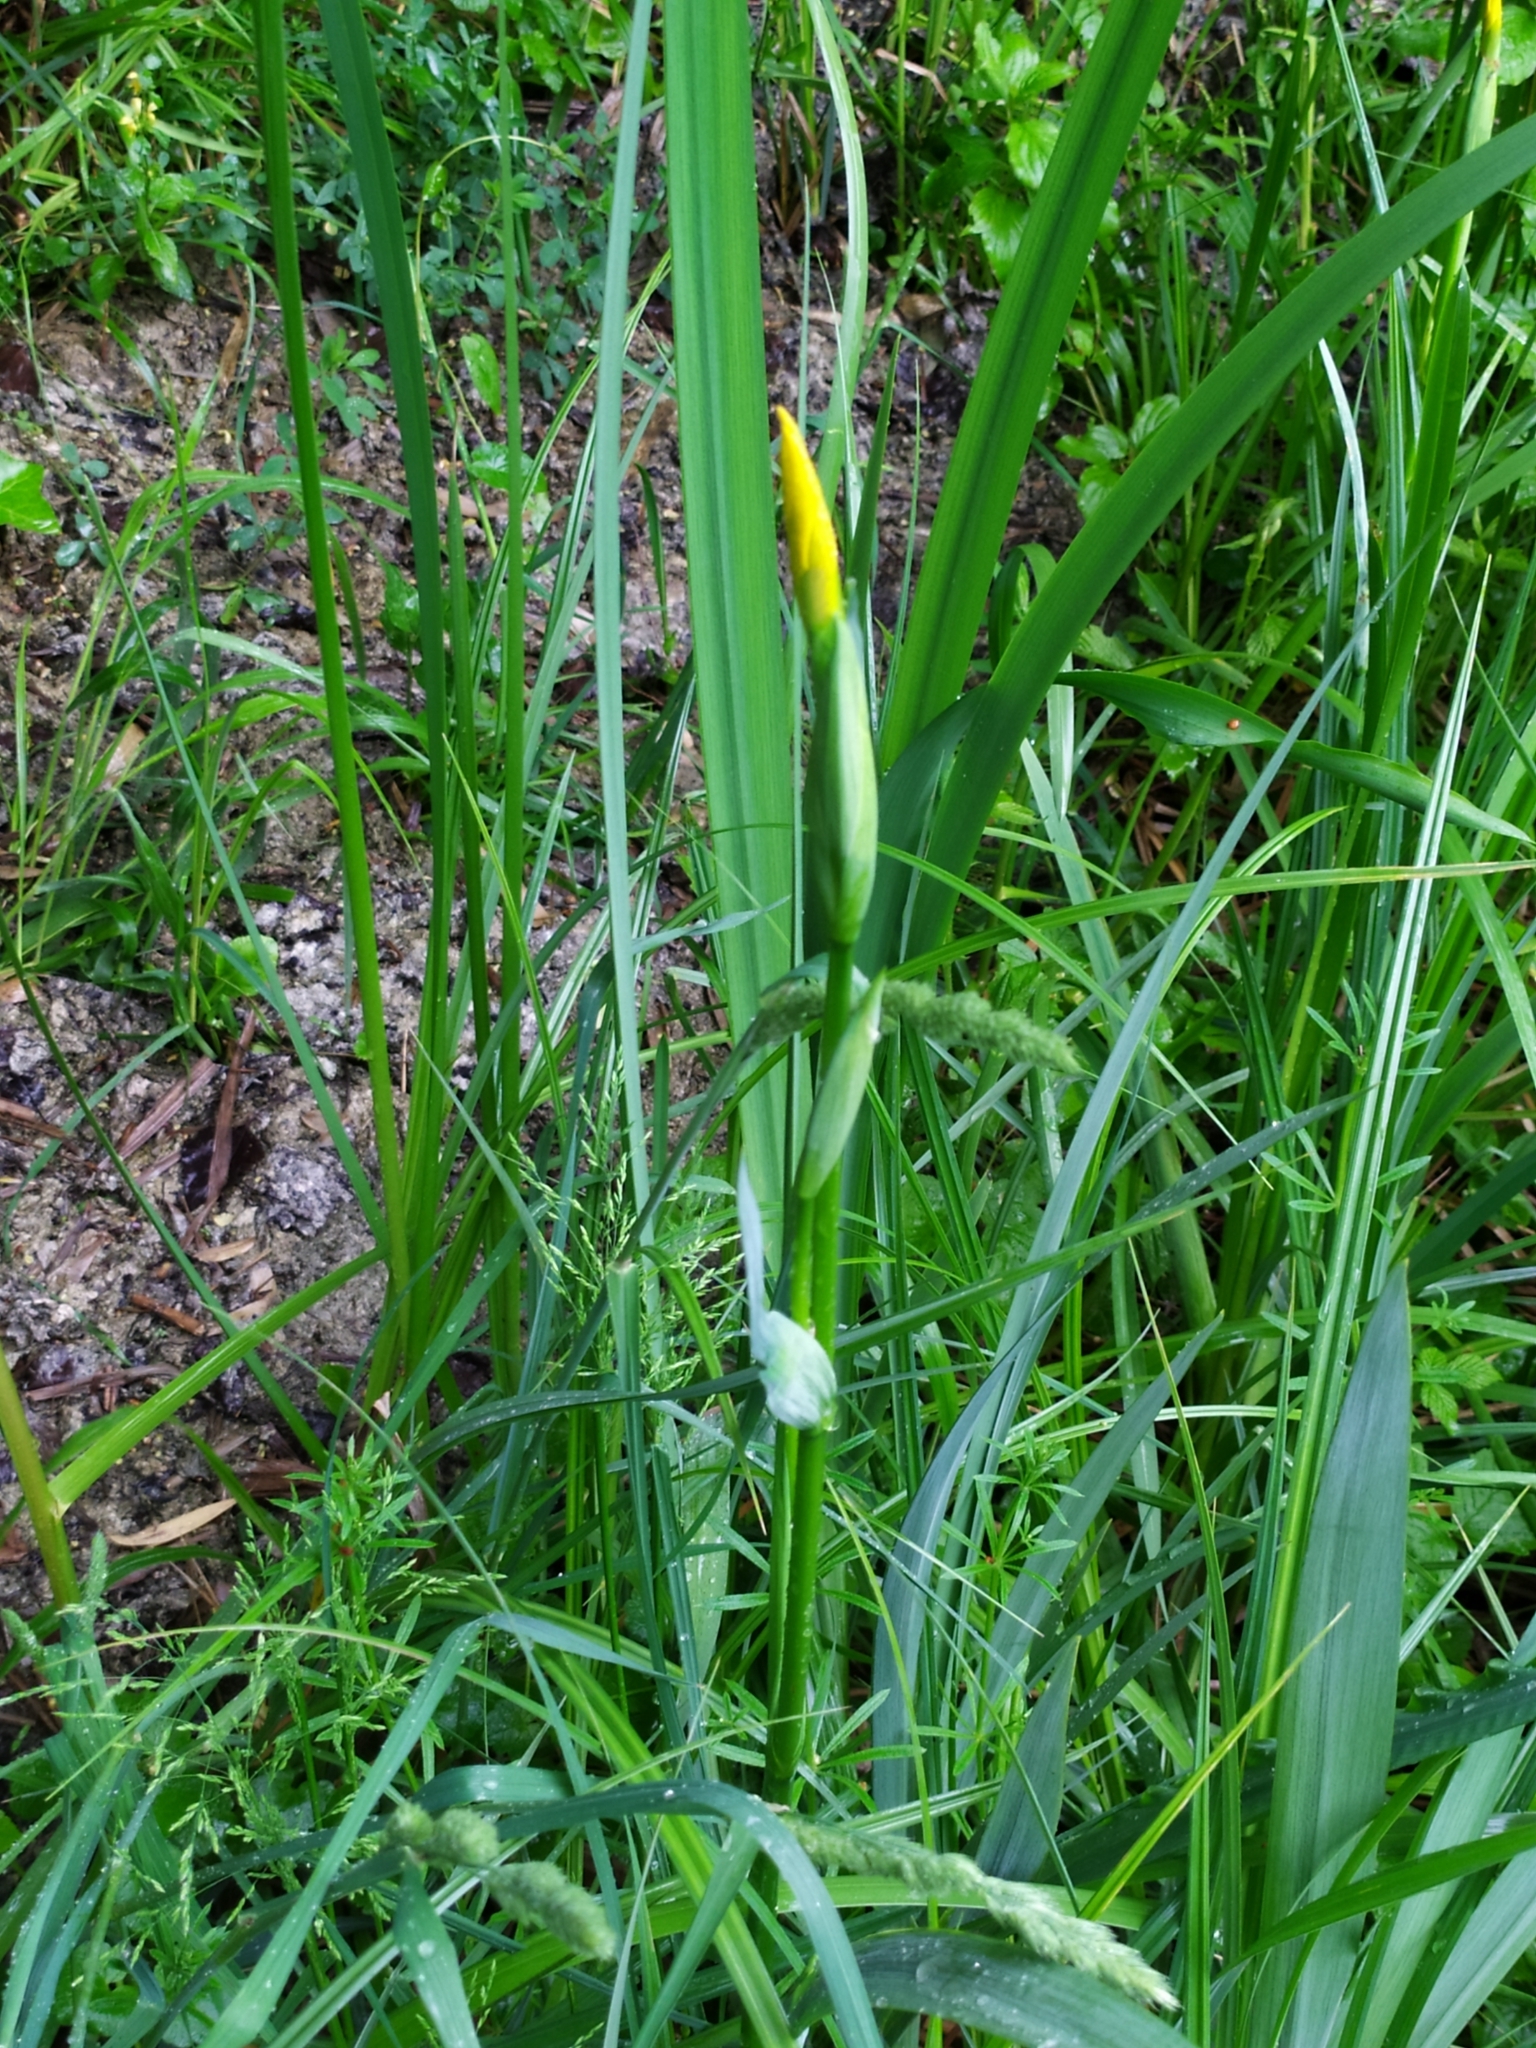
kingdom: Plantae
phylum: Tracheophyta
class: Liliopsida
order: Asparagales
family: Iridaceae
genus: Iris
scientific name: Iris pseudacorus
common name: Yellow flag
